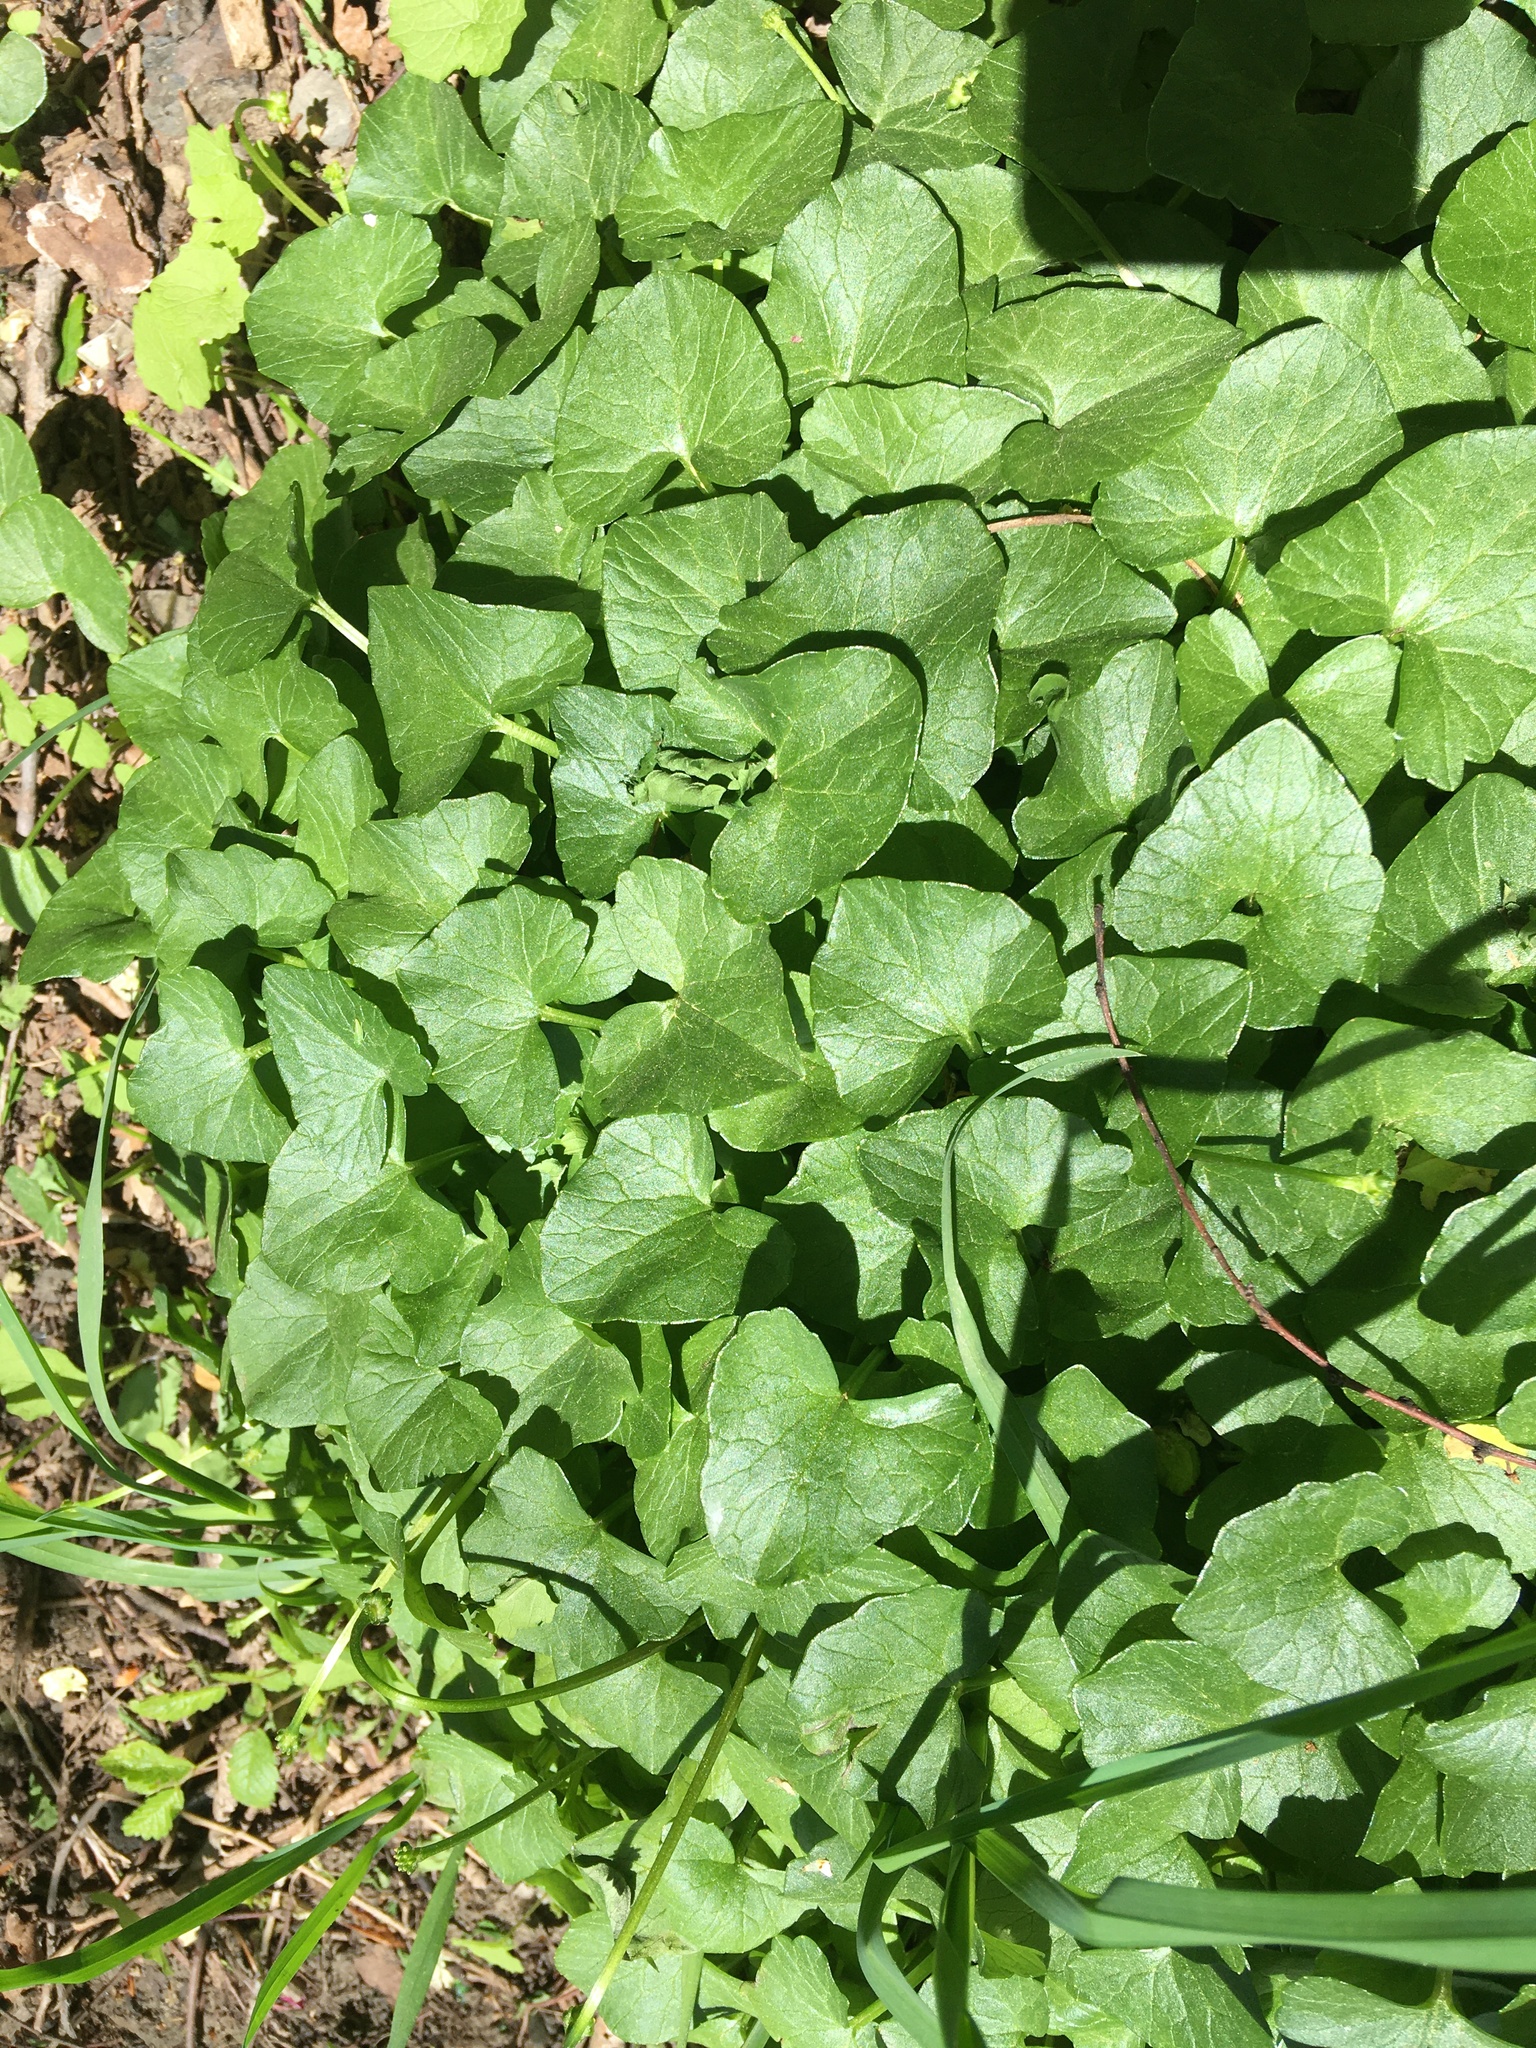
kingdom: Plantae
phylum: Tracheophyta
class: Magnoliopsida
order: Ranunculales
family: Ranunculaceae
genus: Ficaria
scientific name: Ficaria verna
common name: Lesser celandine
